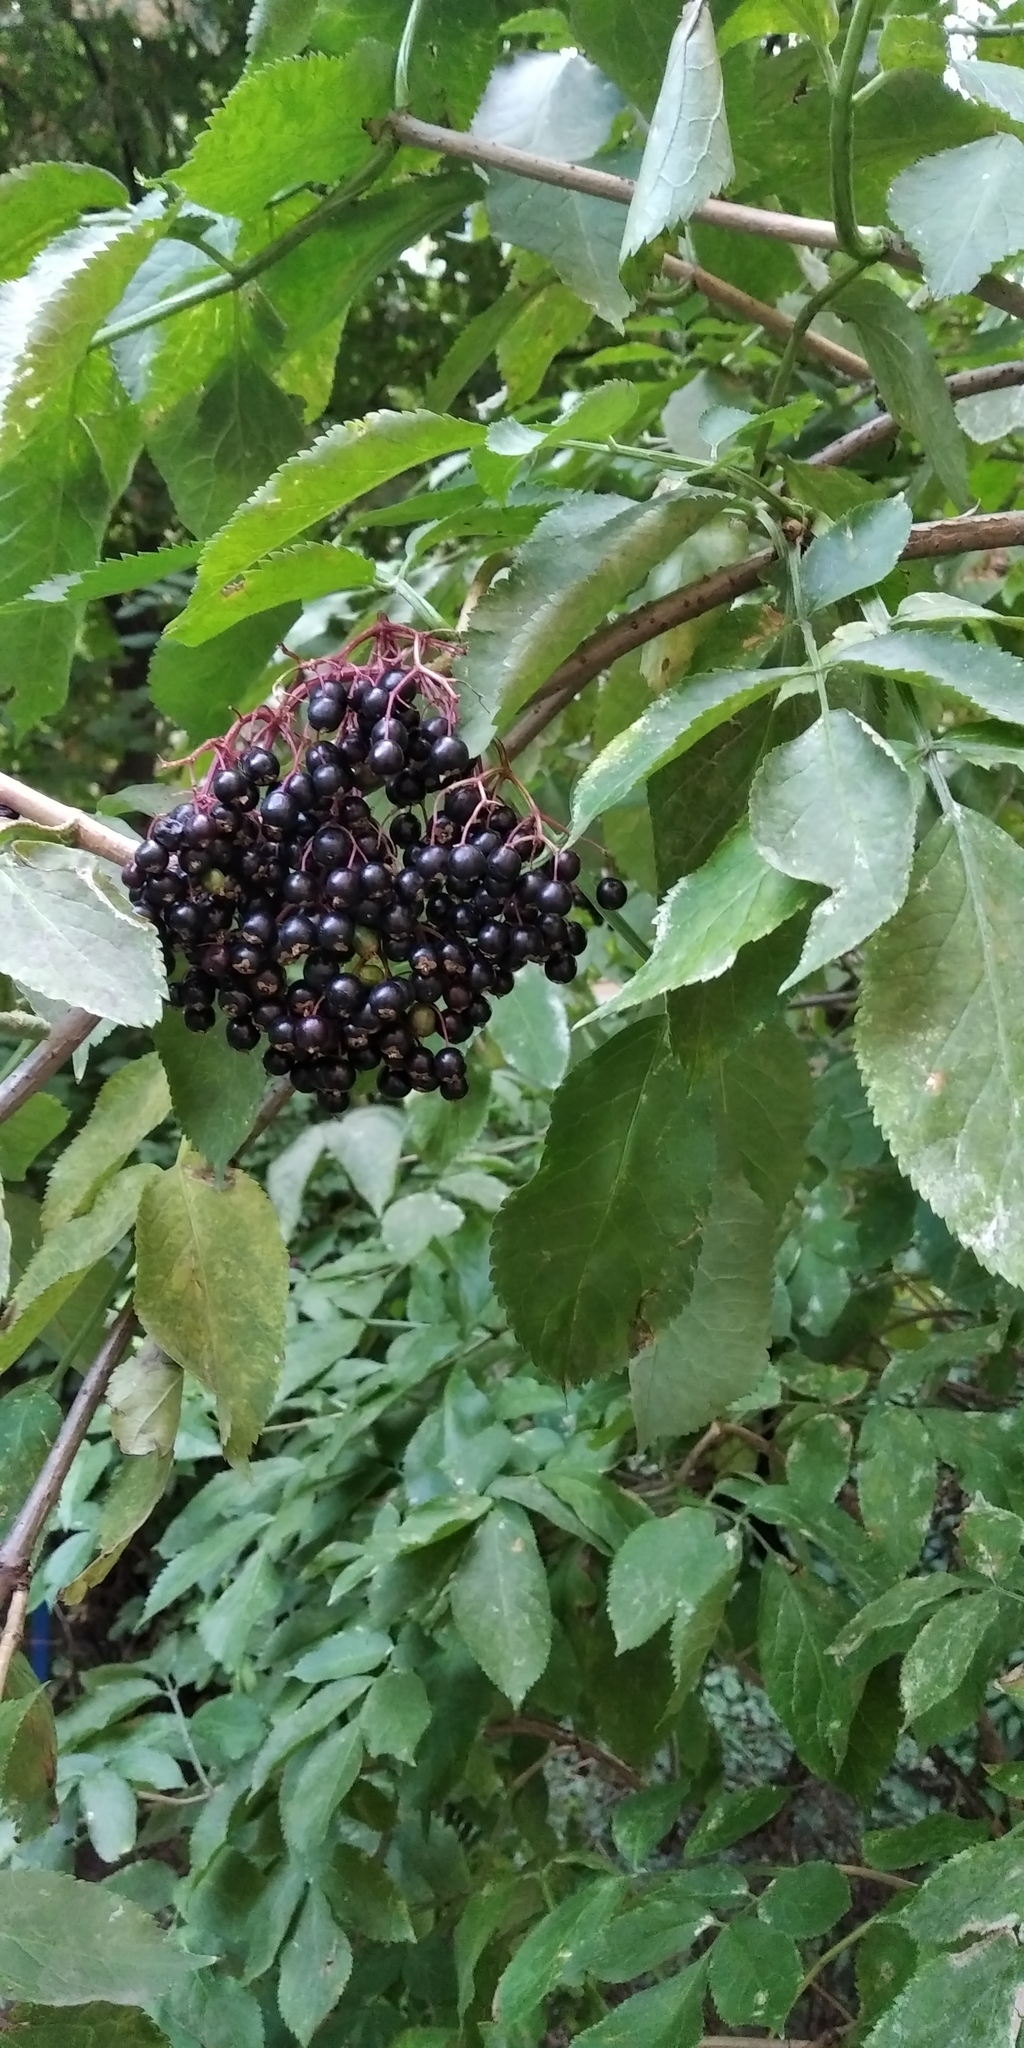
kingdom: Plantae
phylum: Tracheophyta
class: Magnoliopsida
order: Dipsacales
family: Viburnaceae
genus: Sambucus
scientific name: Sambucus nigra
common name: Elder
